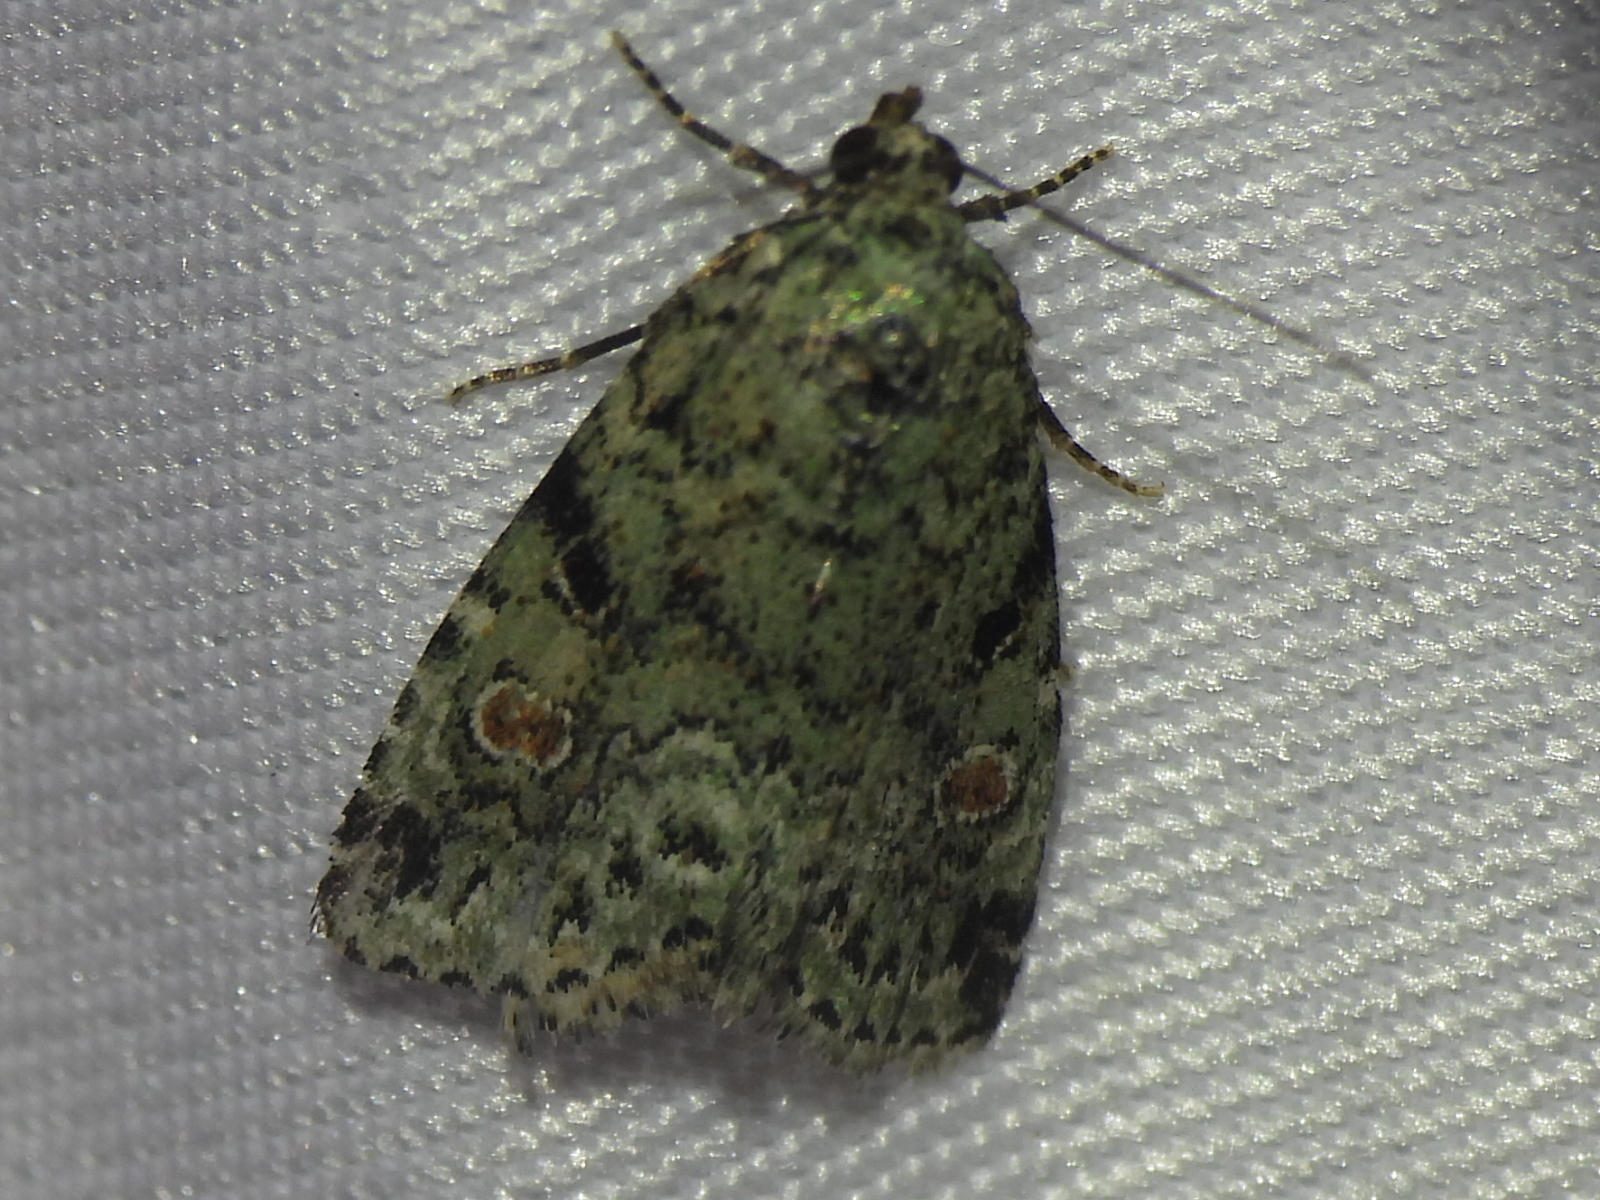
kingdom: Animalia
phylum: Arthropoda
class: Insecta
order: Lepidoptera
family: Noctuidae
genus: Maliattha
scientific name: Maliattha concinnimacula
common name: Red-spotted glyph
